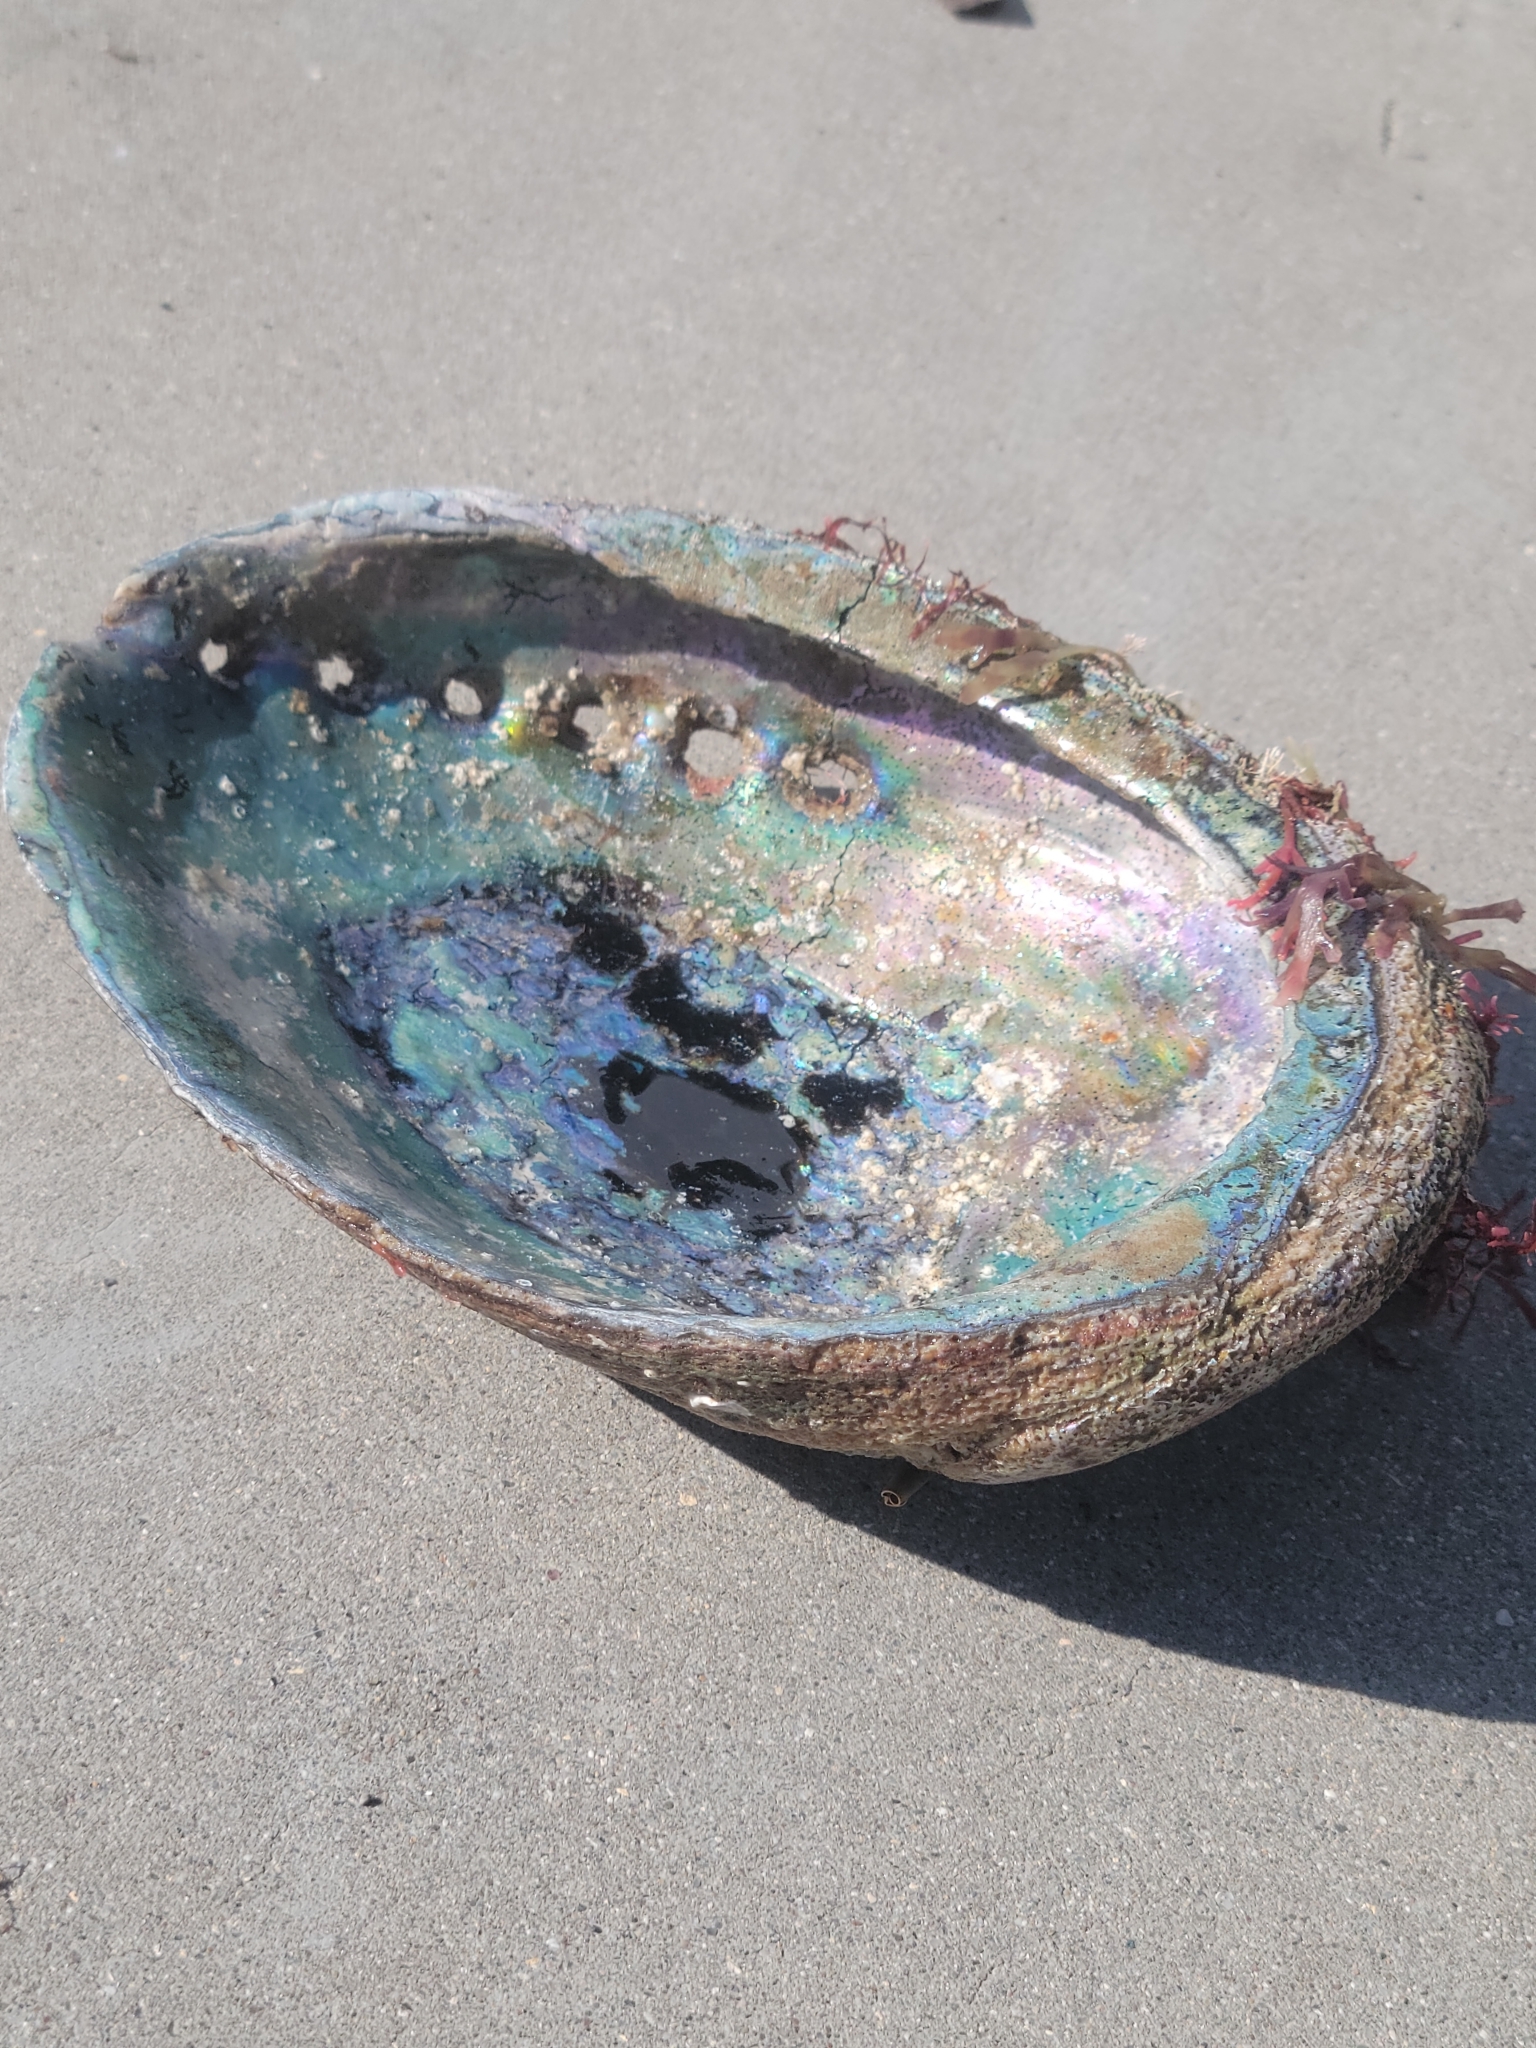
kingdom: Animalia
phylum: Mollusca
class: Gastropoda
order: Lepetellida
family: Haliotidae
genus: Haliotis
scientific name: Haliotis fulgens
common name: Green abalone
